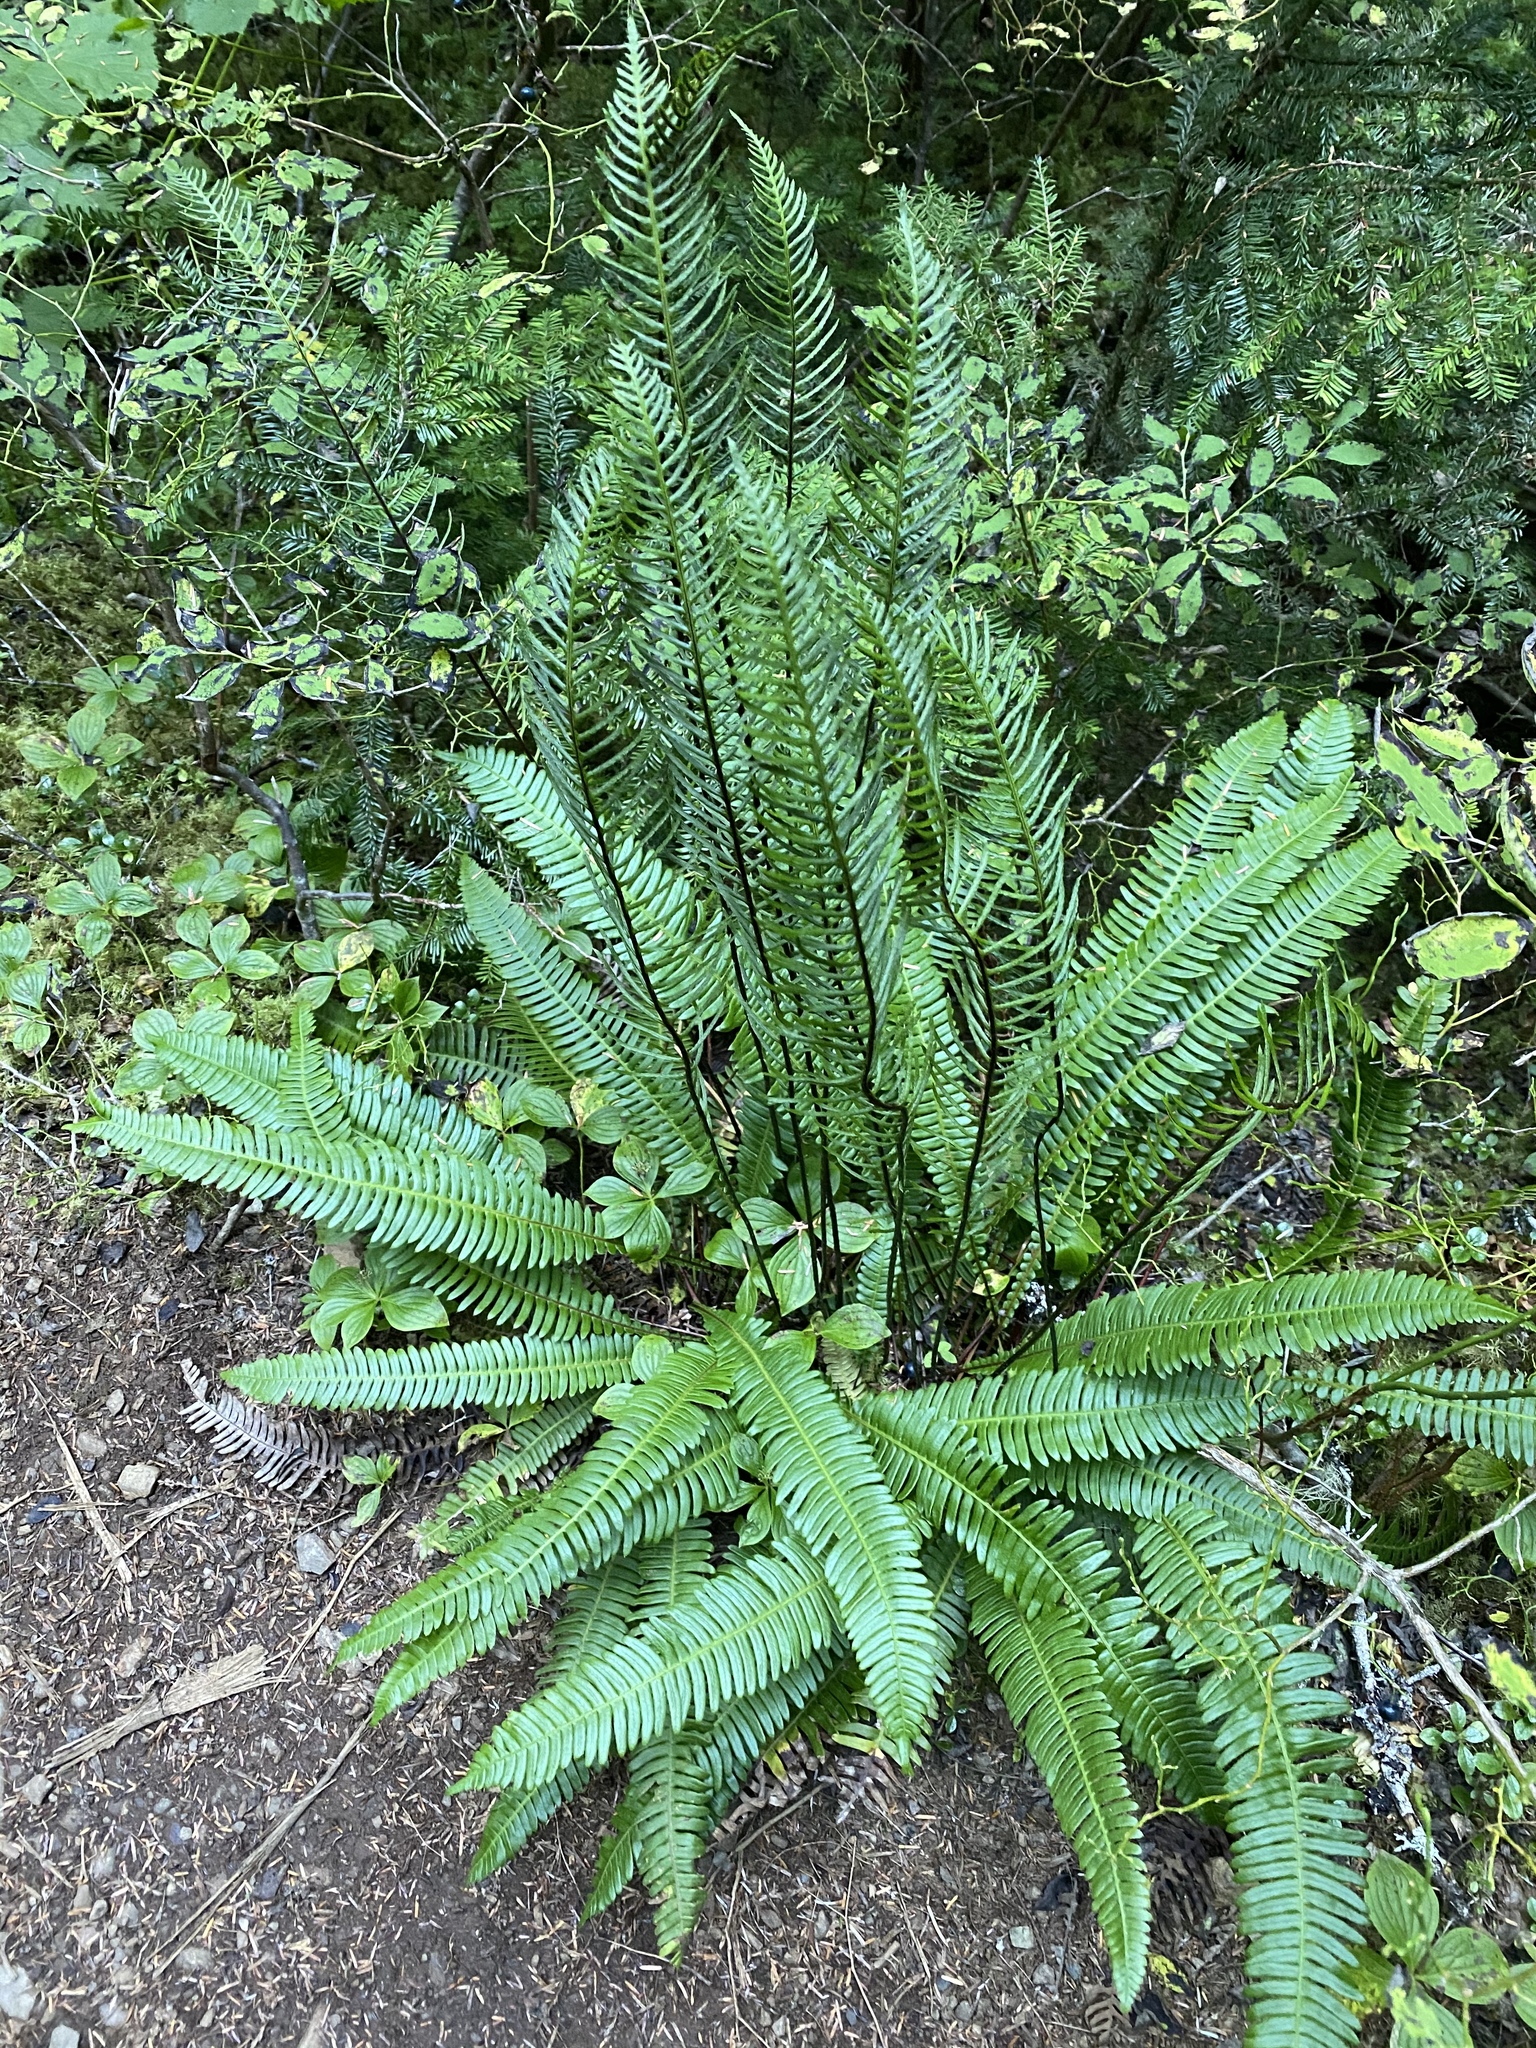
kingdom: Plantae
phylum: Tracheophyta
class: Polypodiopsida
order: Polypodiales
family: Blechnaceae
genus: Struthiopteris
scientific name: Struthiopteris spicant
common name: Deer fern
